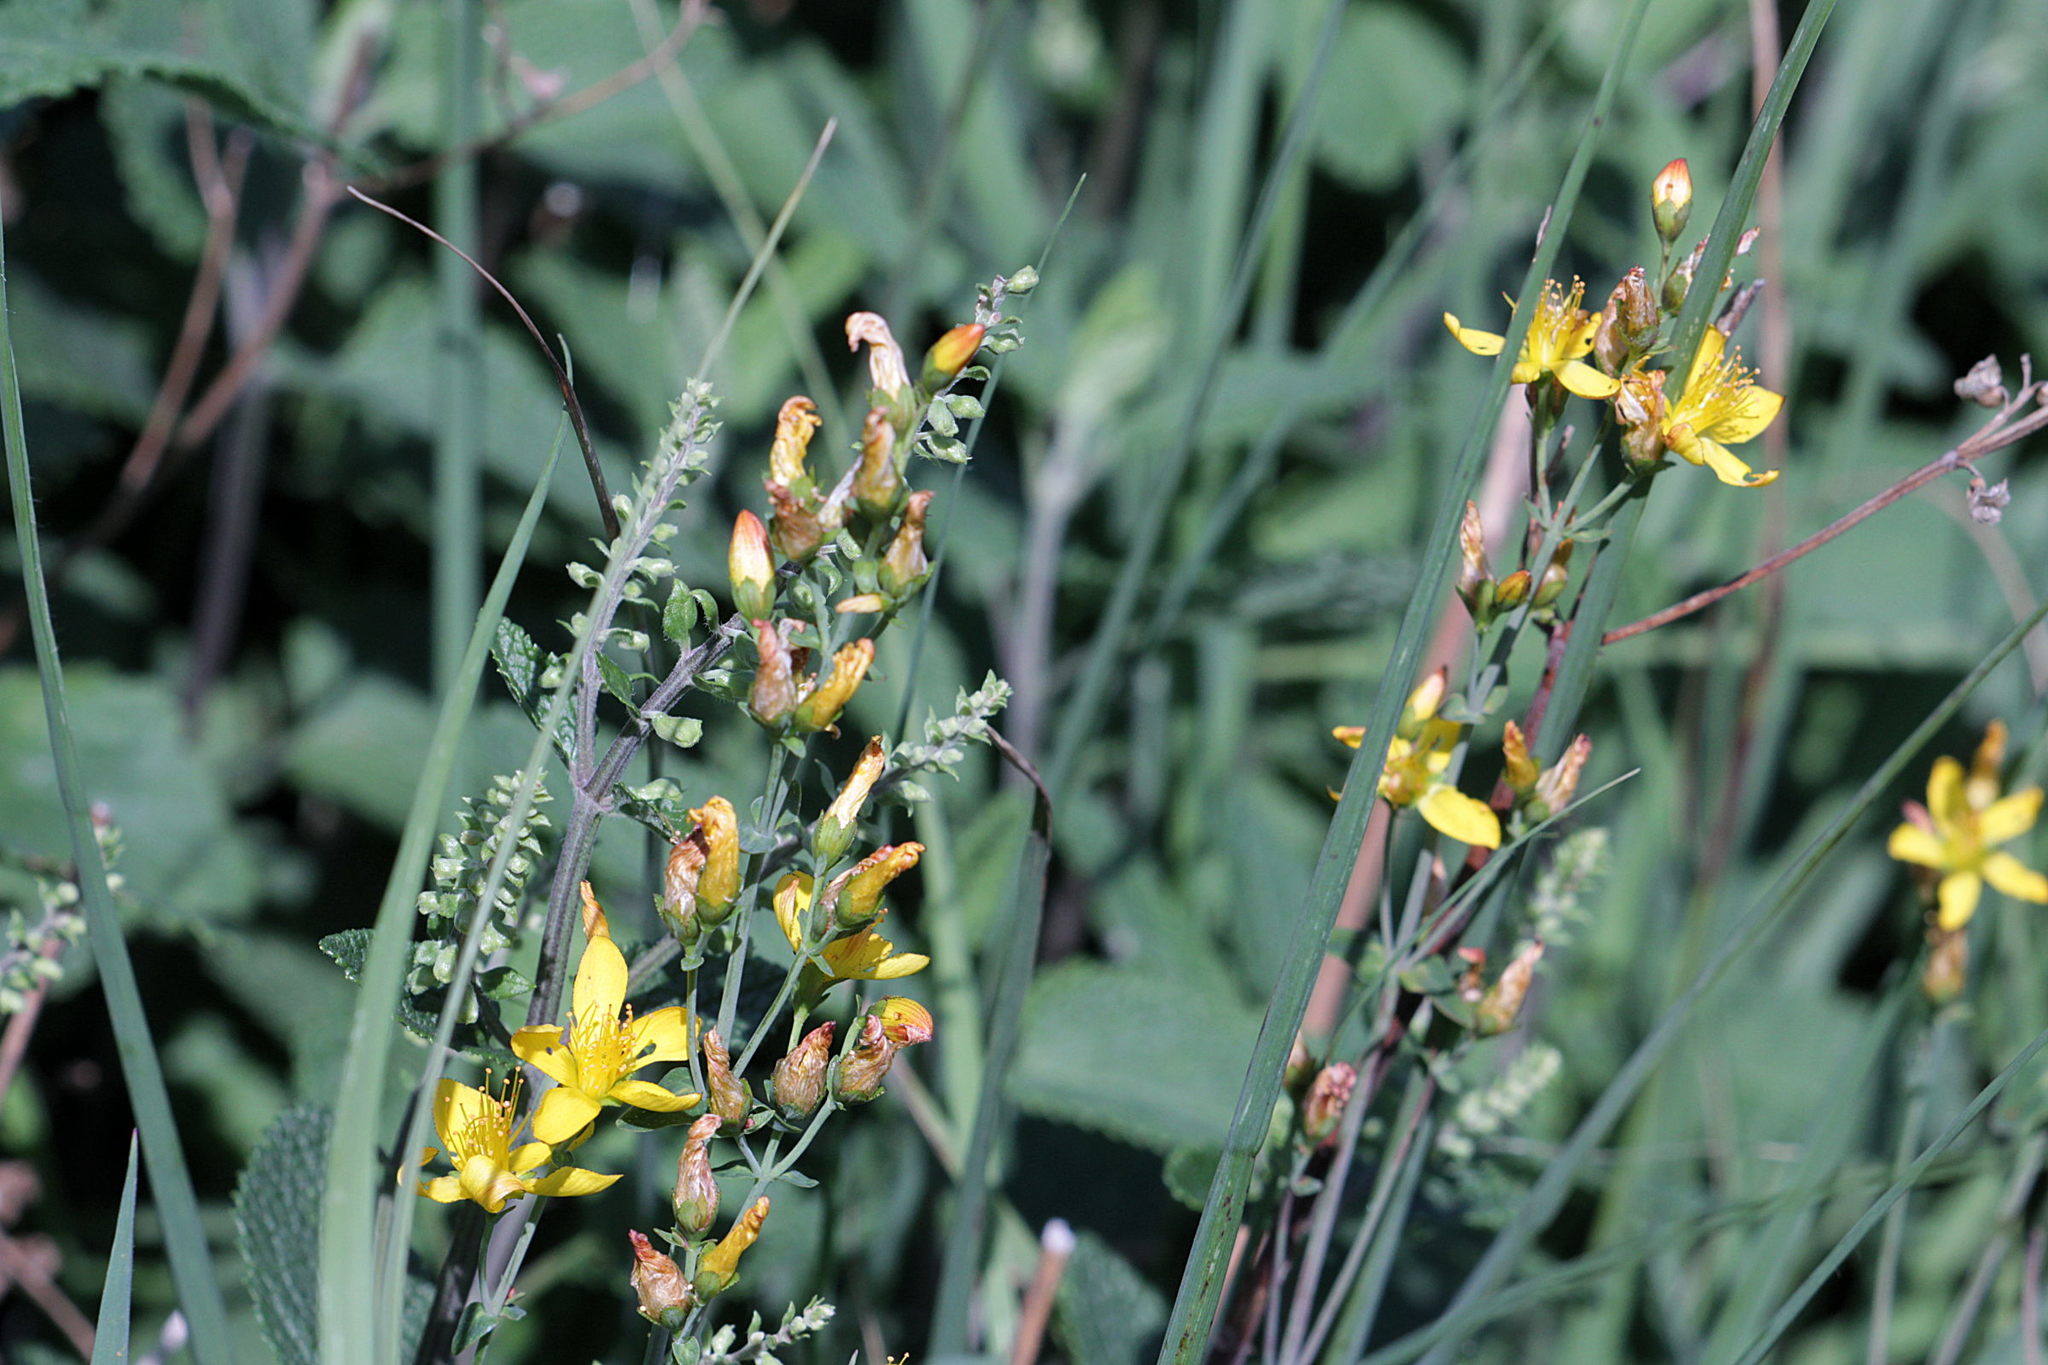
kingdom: Plantae
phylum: Tracheophyta
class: Magnoliopsida
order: Malpighiales
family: Hypericaceae
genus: Hypericum
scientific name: Hypericum pulchrum
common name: Slender st. john's-wort
